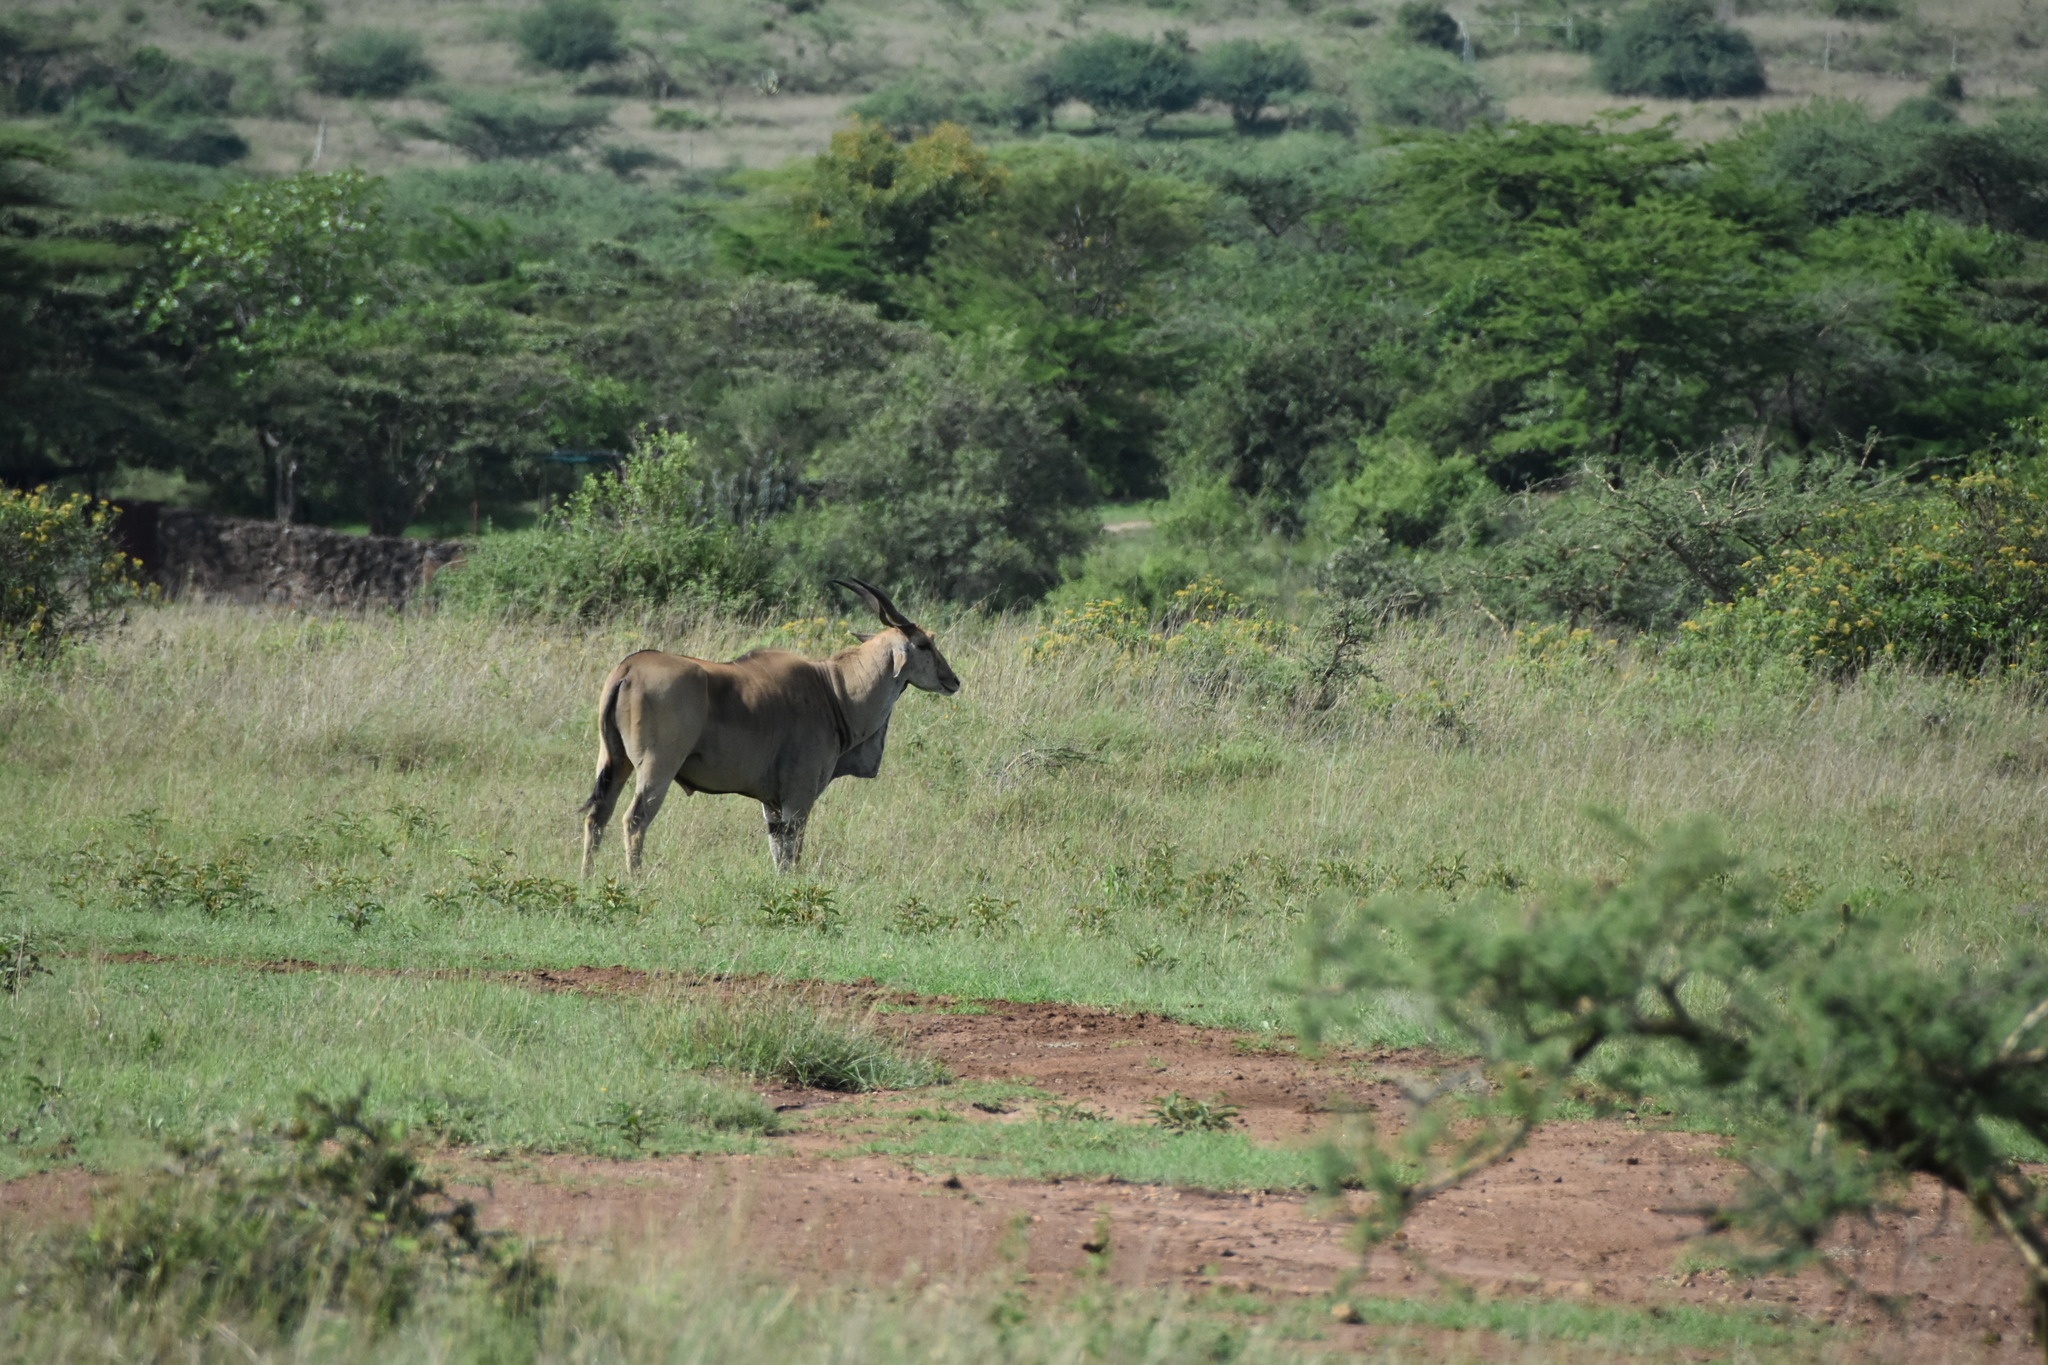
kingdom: Animalia
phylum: Chordata
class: Mammalia
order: Artiodactyla
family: Bovidae
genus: Taurotragus
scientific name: Taurotragus oryx
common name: Common eland
